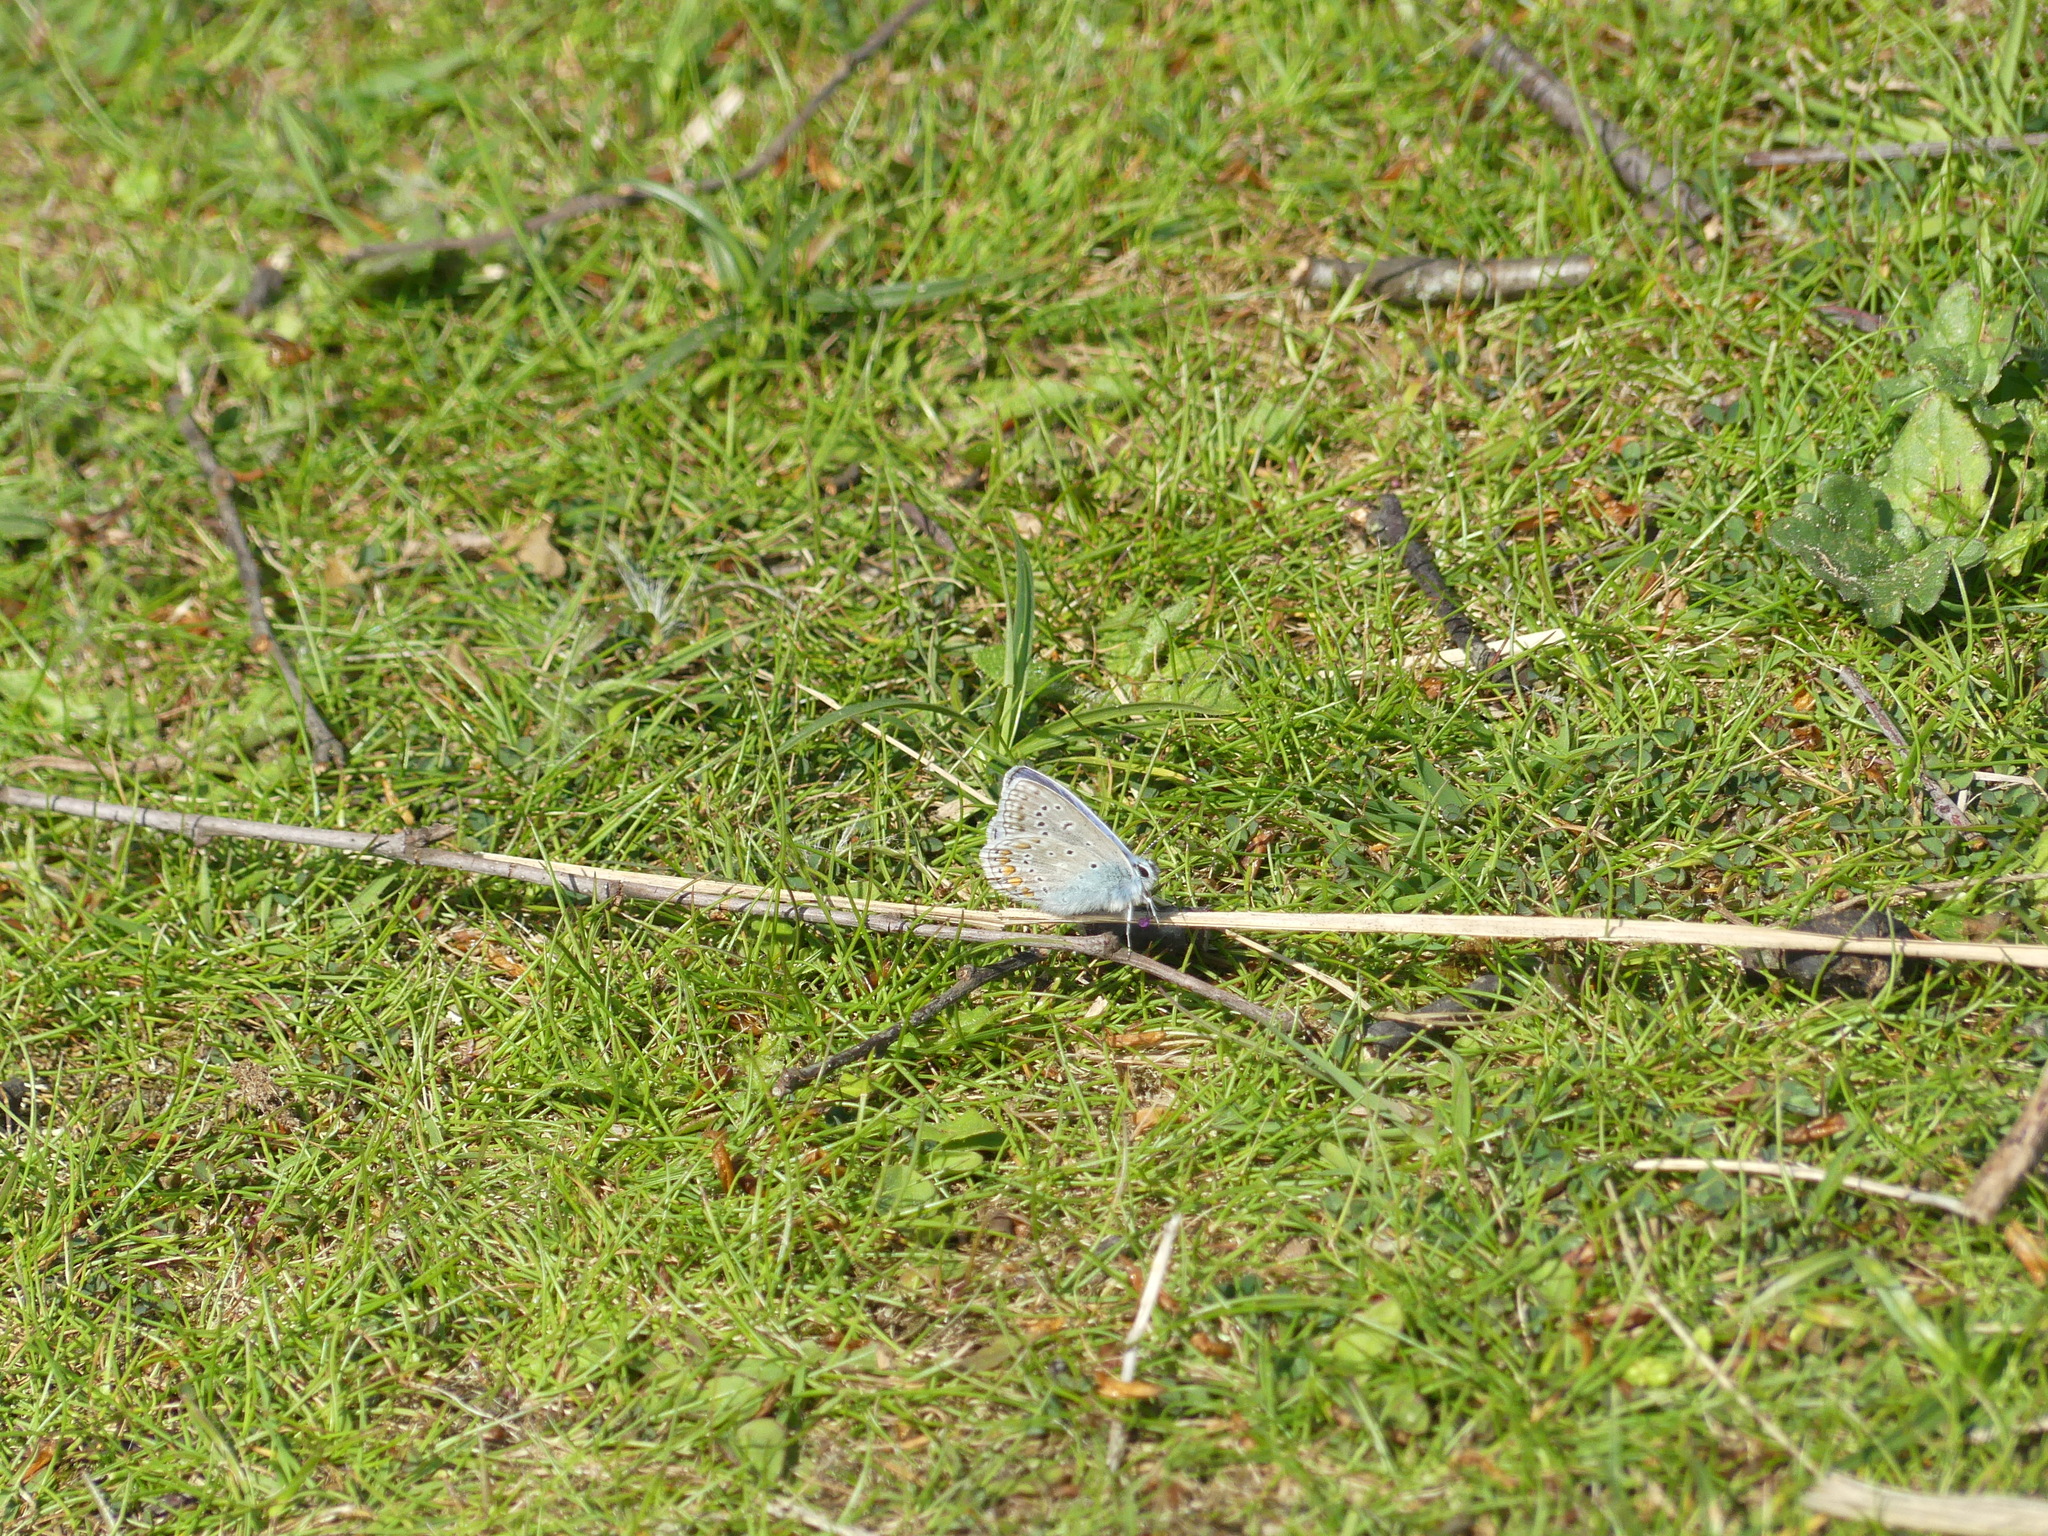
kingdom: Animalia
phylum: Arthropoda
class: Insecta
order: Lepidoptera
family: Lycaenidae
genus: Polyommatus
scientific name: Polyommatus icarus
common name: Common blue
